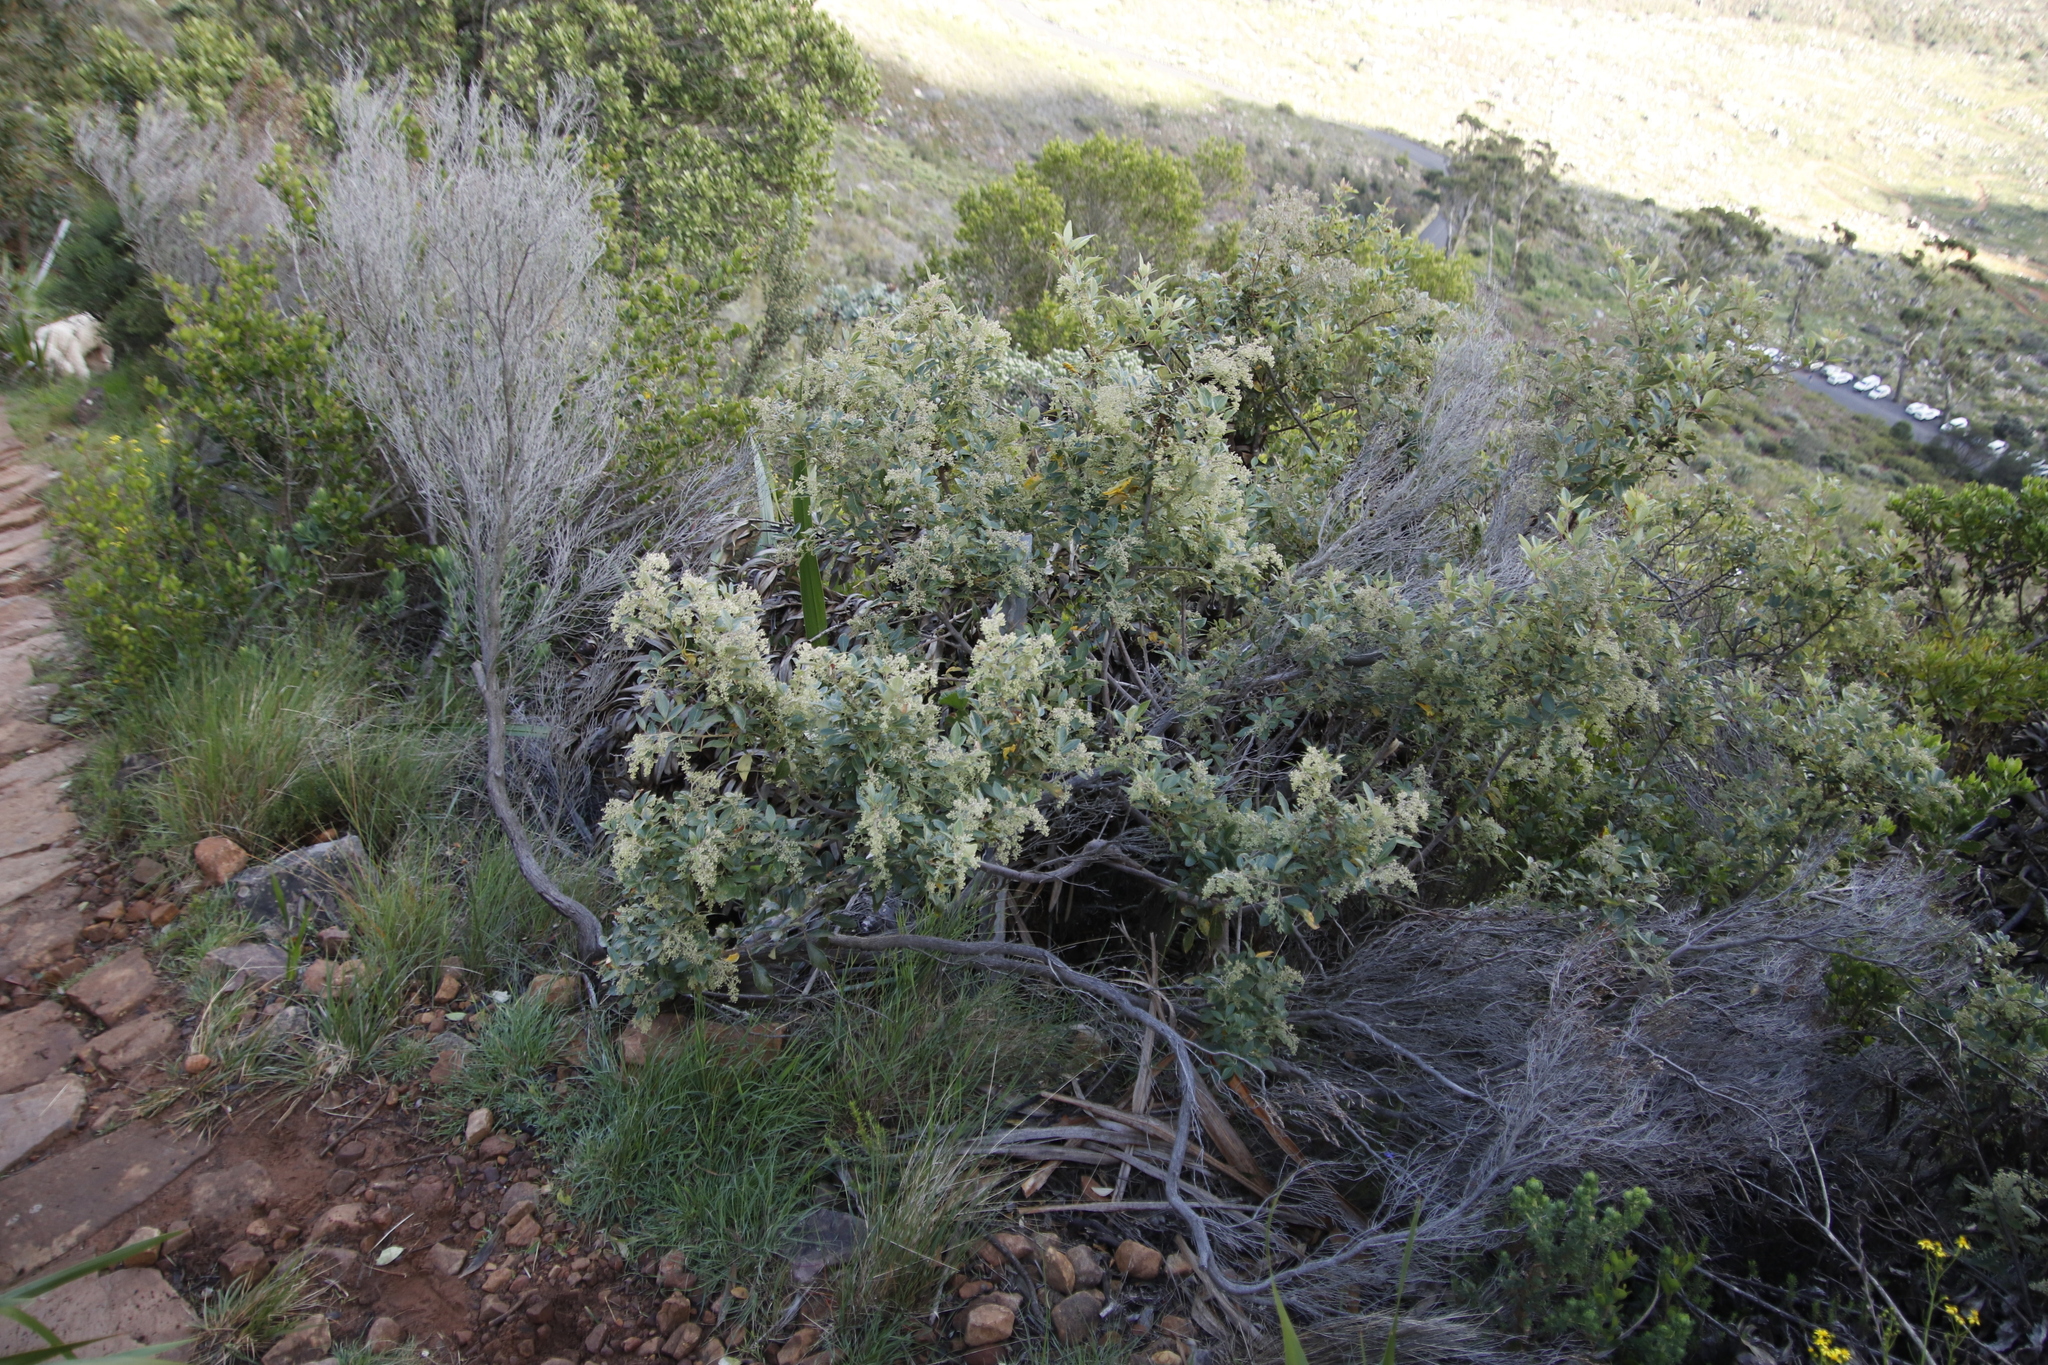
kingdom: Plantae
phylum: Tracheophyta
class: Magnoliopsida
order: Sapindales
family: Anacardiaceae
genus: Searsia
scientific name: Searsia tomentosa
